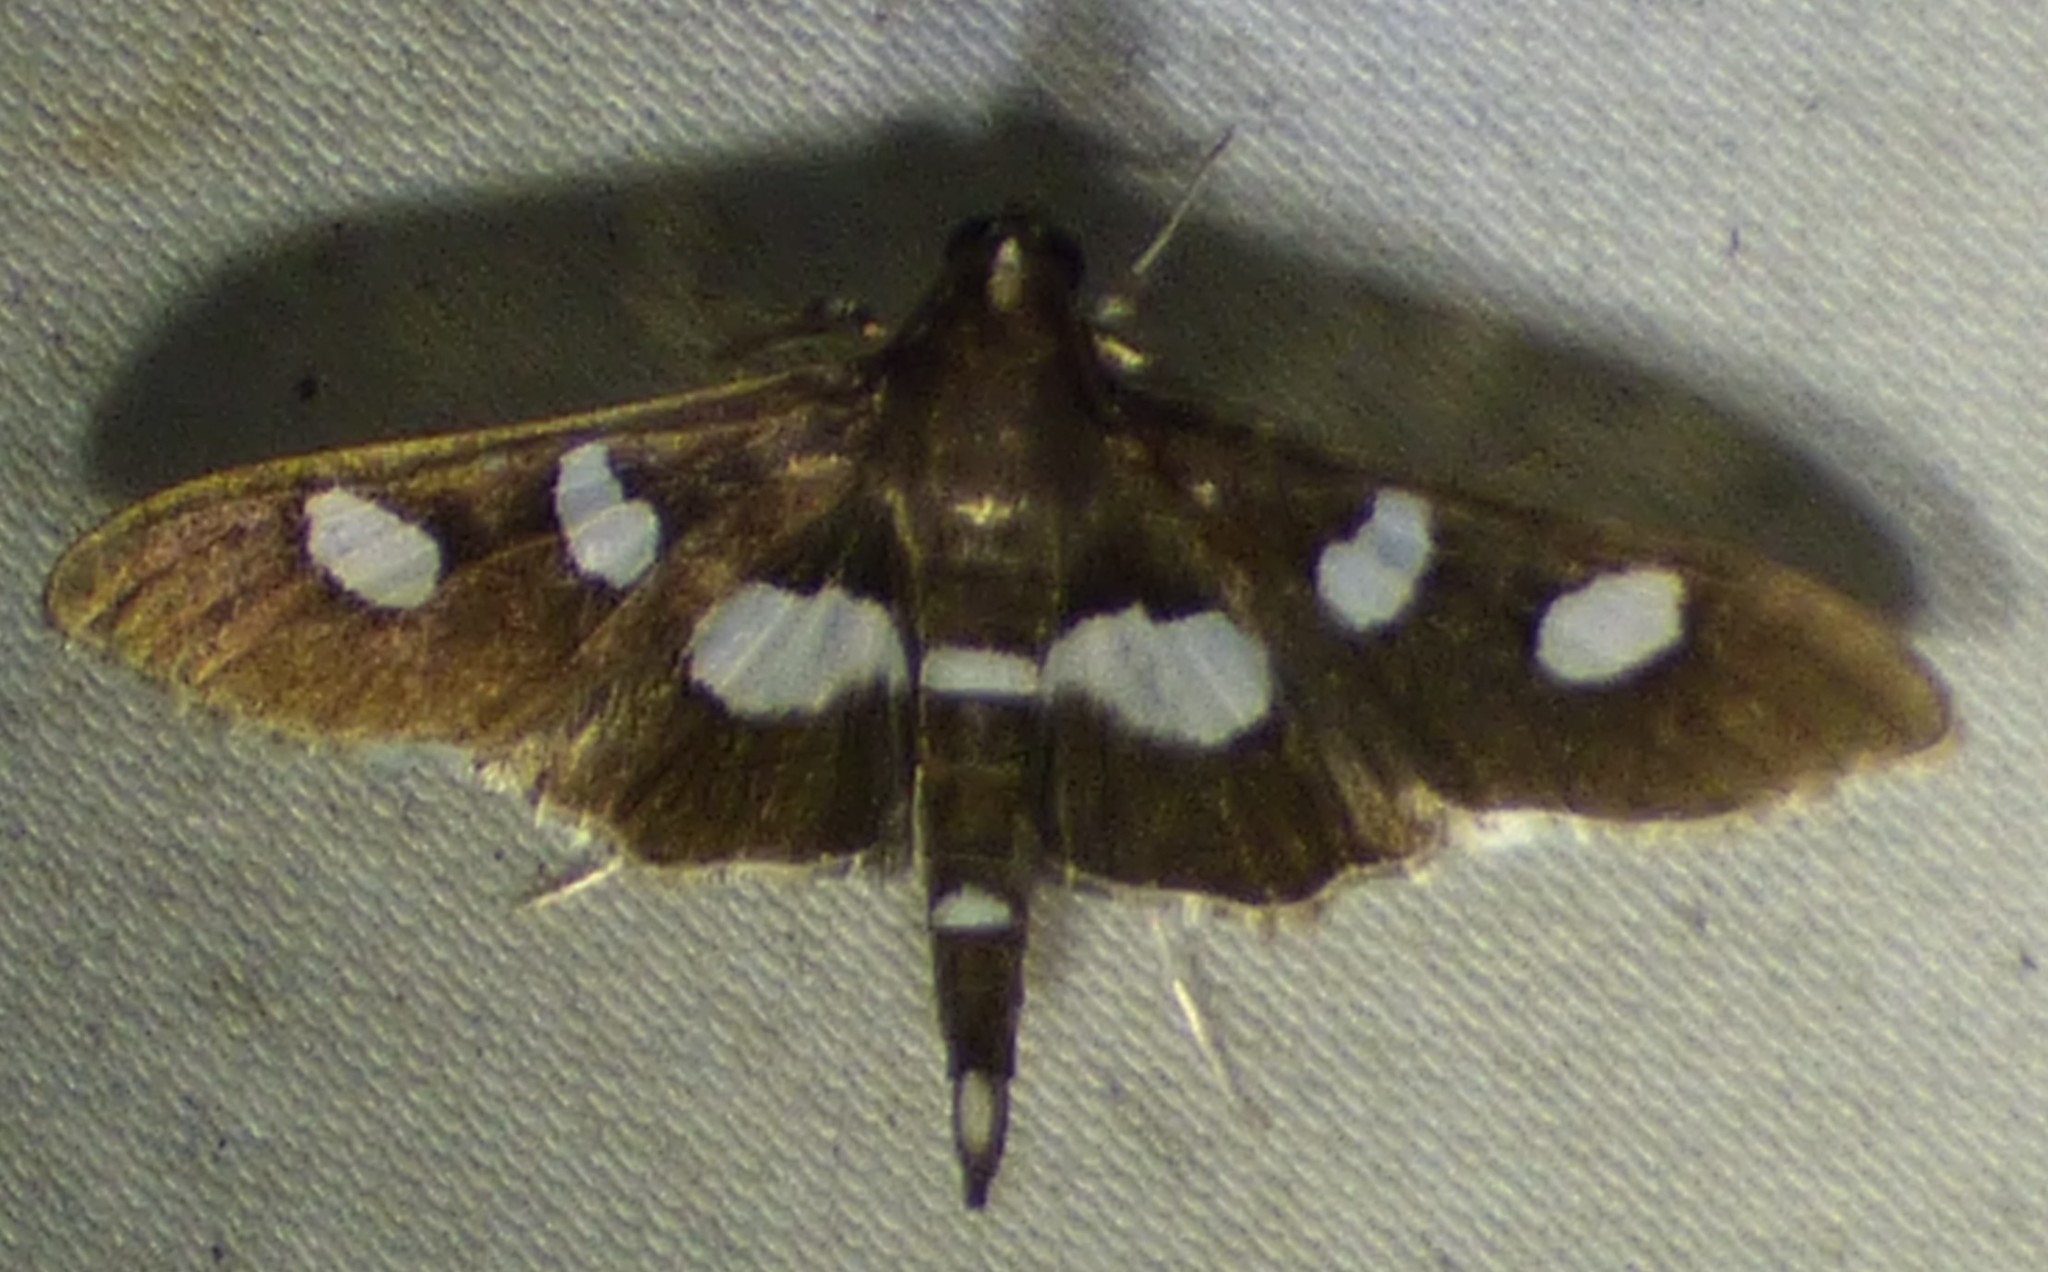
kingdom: Animalia
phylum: Arthropoda
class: Insecta
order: Lepidoptera
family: Crambidae
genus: Desmia
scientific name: Desmia funeralis
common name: Grape leaf folder moth
